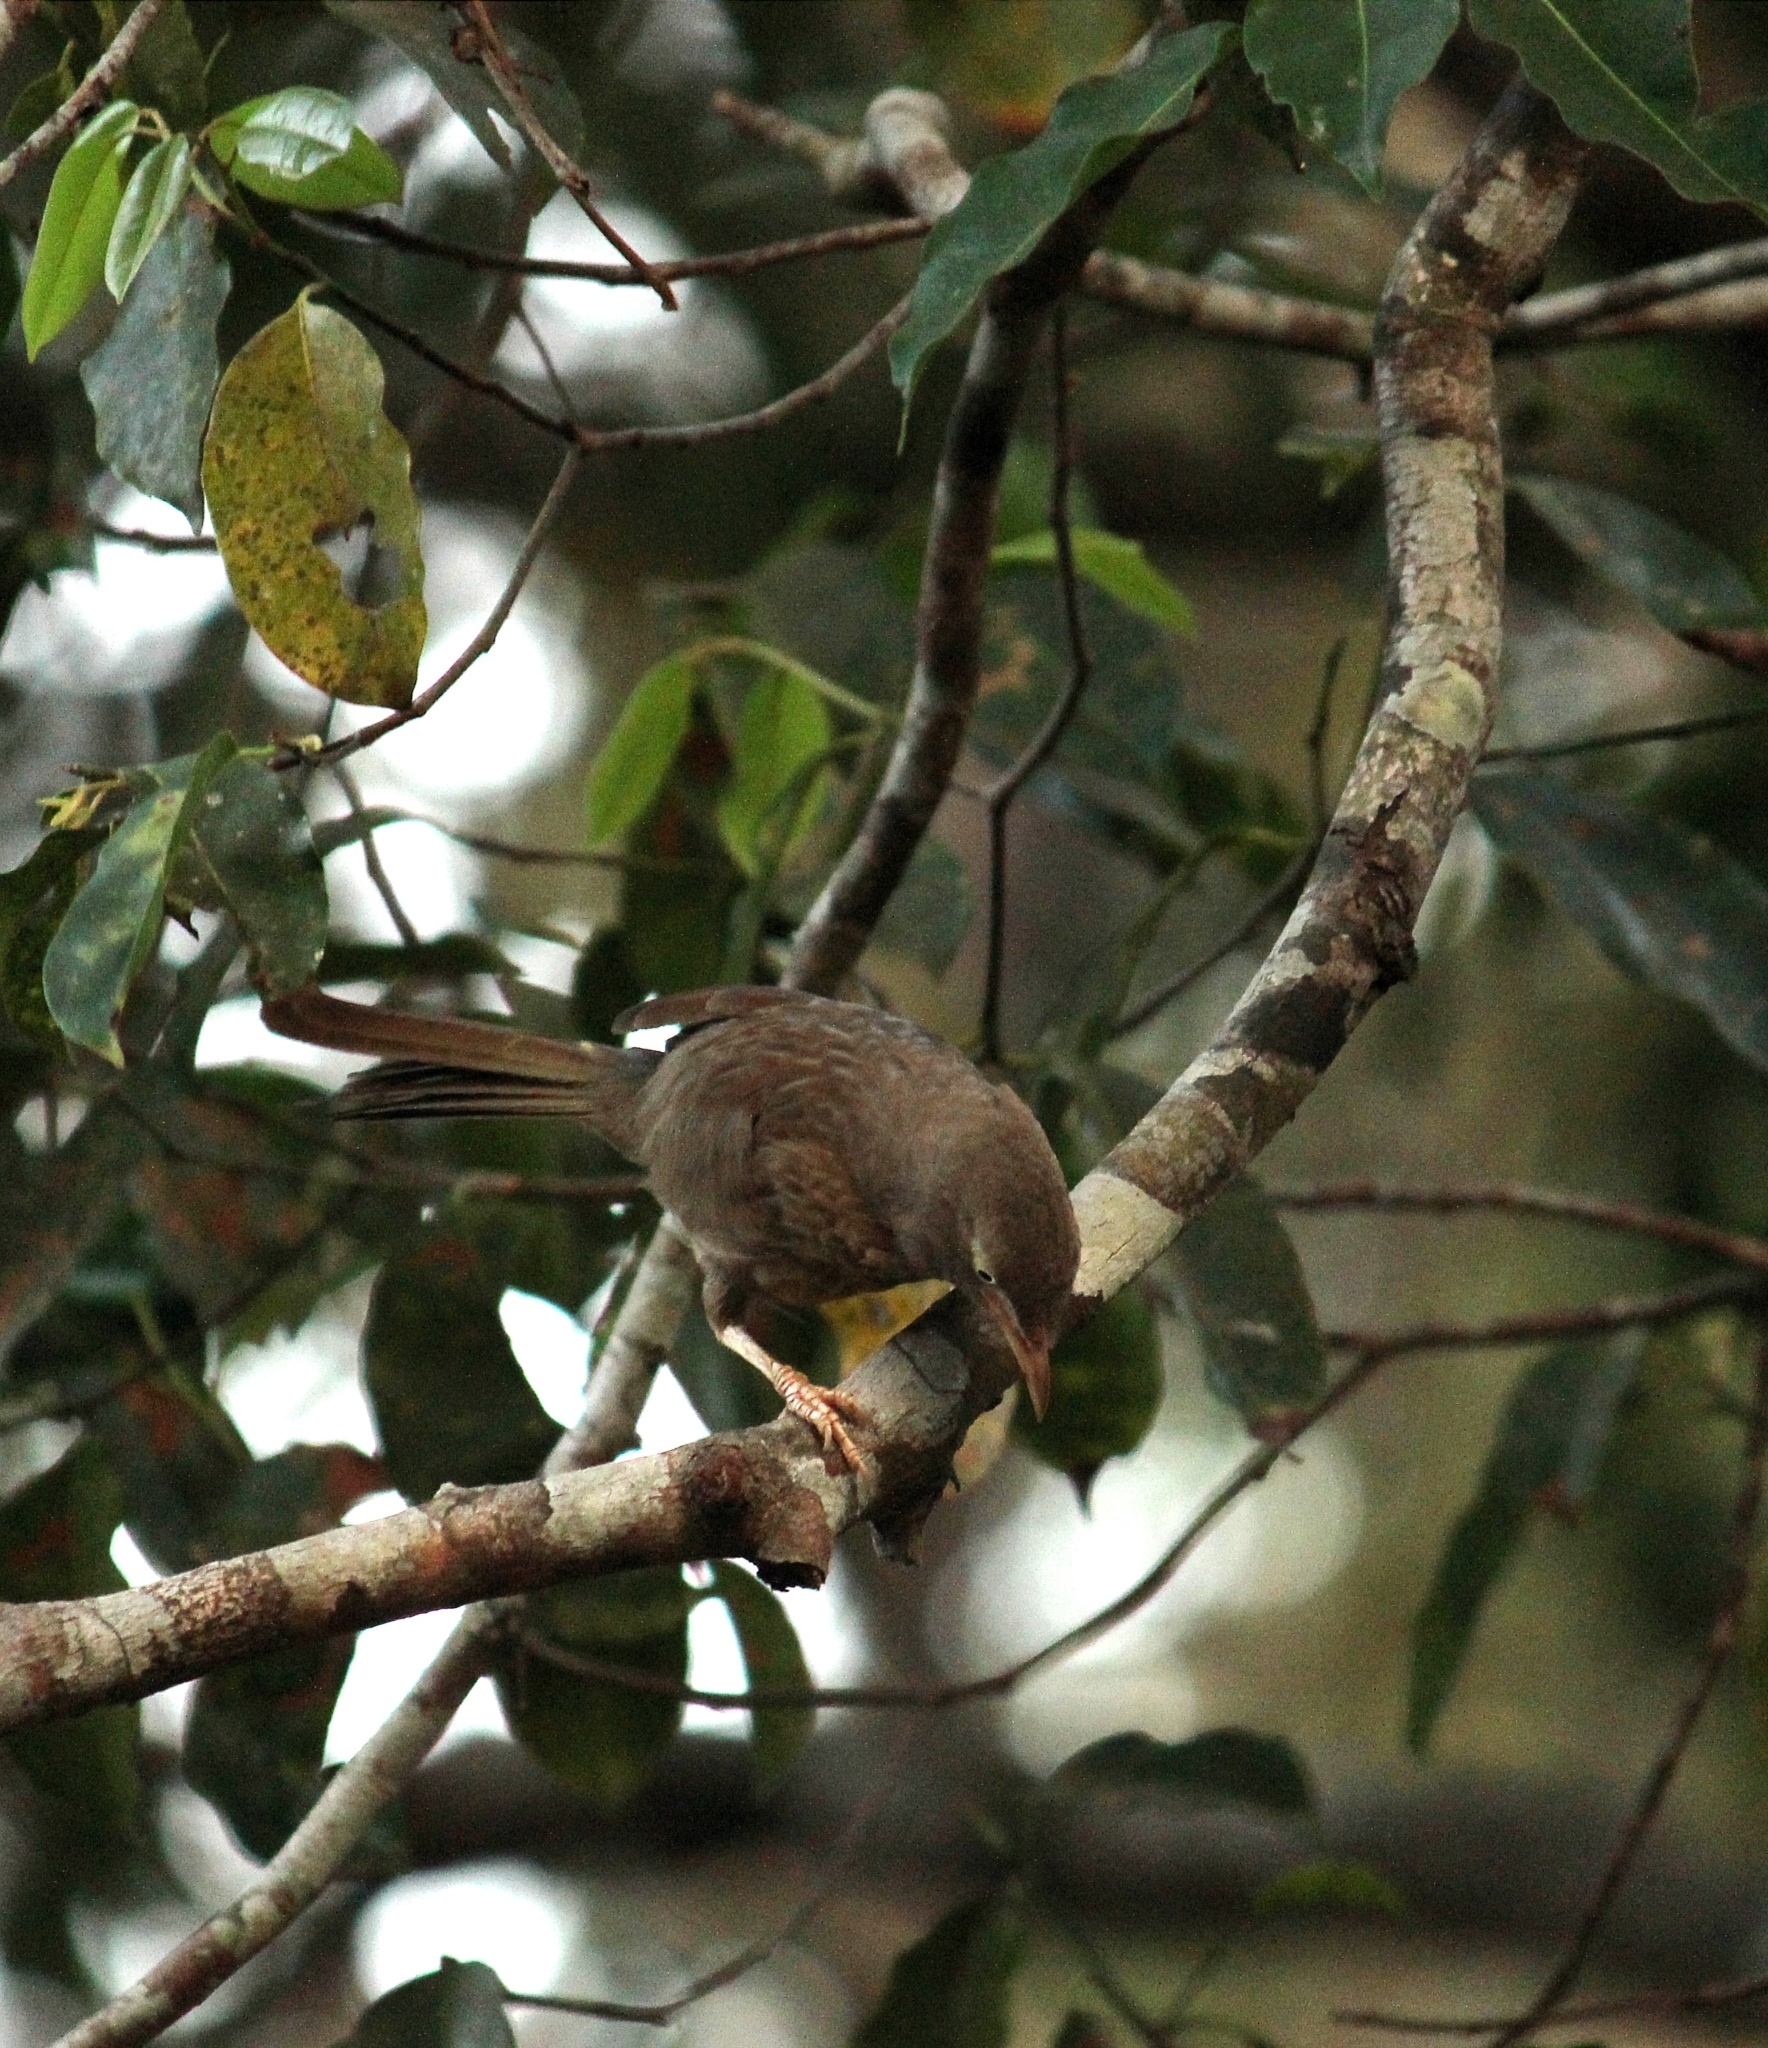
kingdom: Animalia
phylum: Chordata
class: Aves
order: Passeriformes
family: Leiothrichidae
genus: Turdoides
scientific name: Turdoides striata
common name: Jungle babbler
